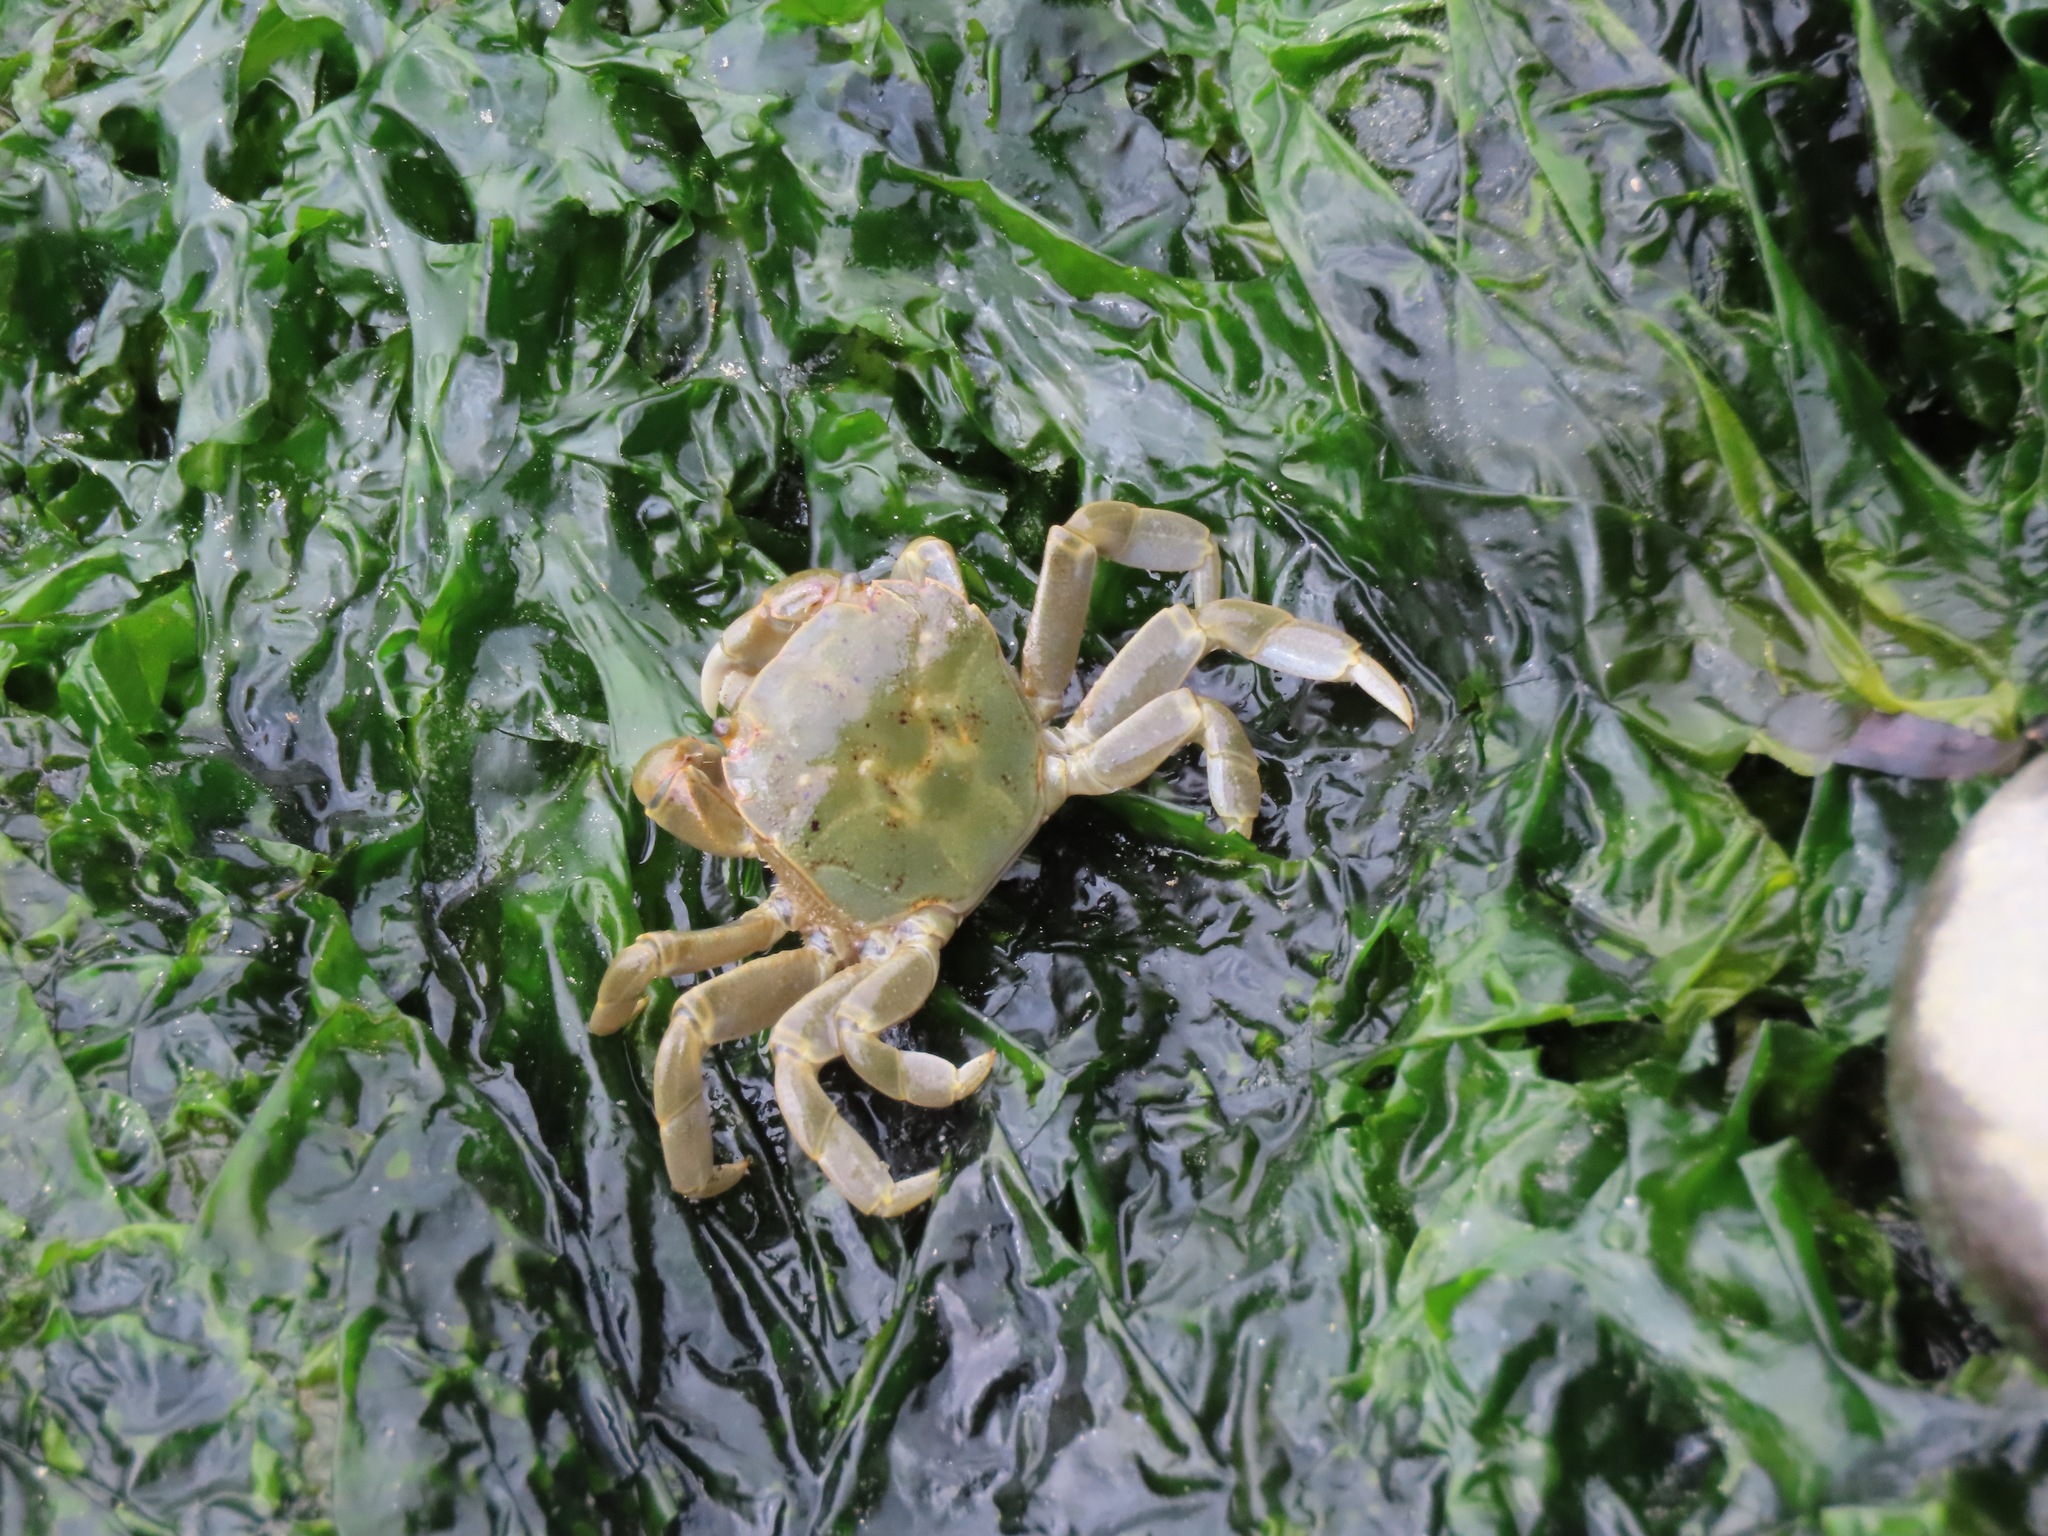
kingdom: Animalia
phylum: Arthropoda
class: Malacostraca
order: Decapoda
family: Varunidae
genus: Hemigrapsus
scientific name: Hemigrapsus nudus
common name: Purple shore crab
